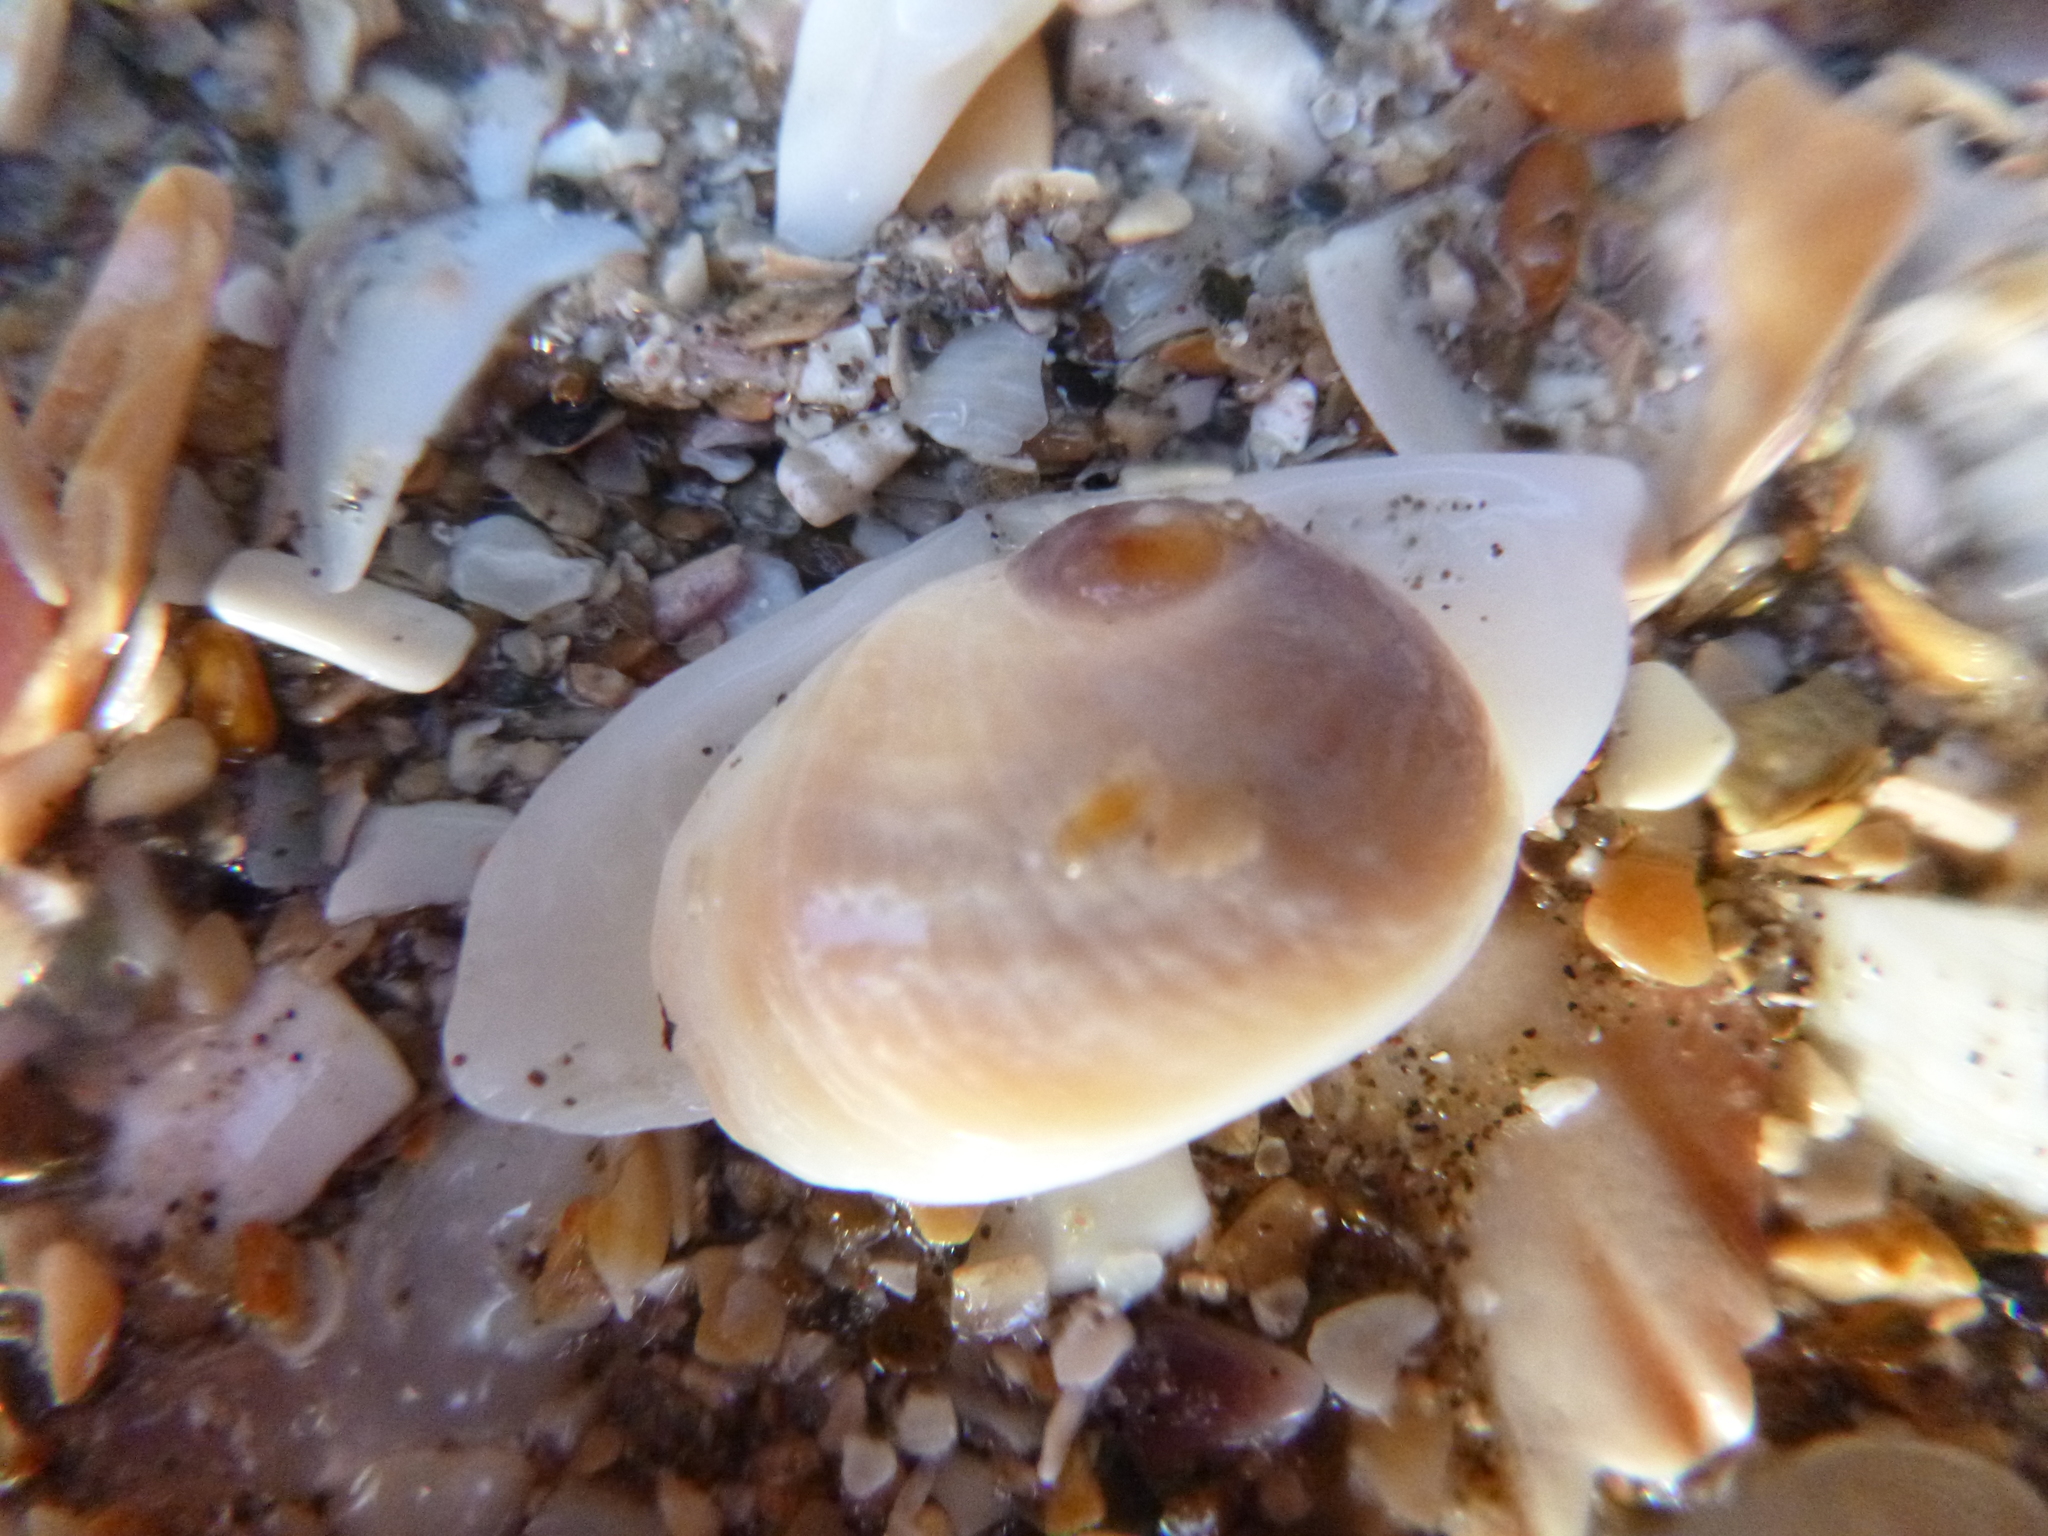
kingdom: Animalia
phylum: Mollusca
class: Gastropoda
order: Littorinimorpha
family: Calyptraeidae
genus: Sigapatella
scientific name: Sigapatella novaezelandiae
